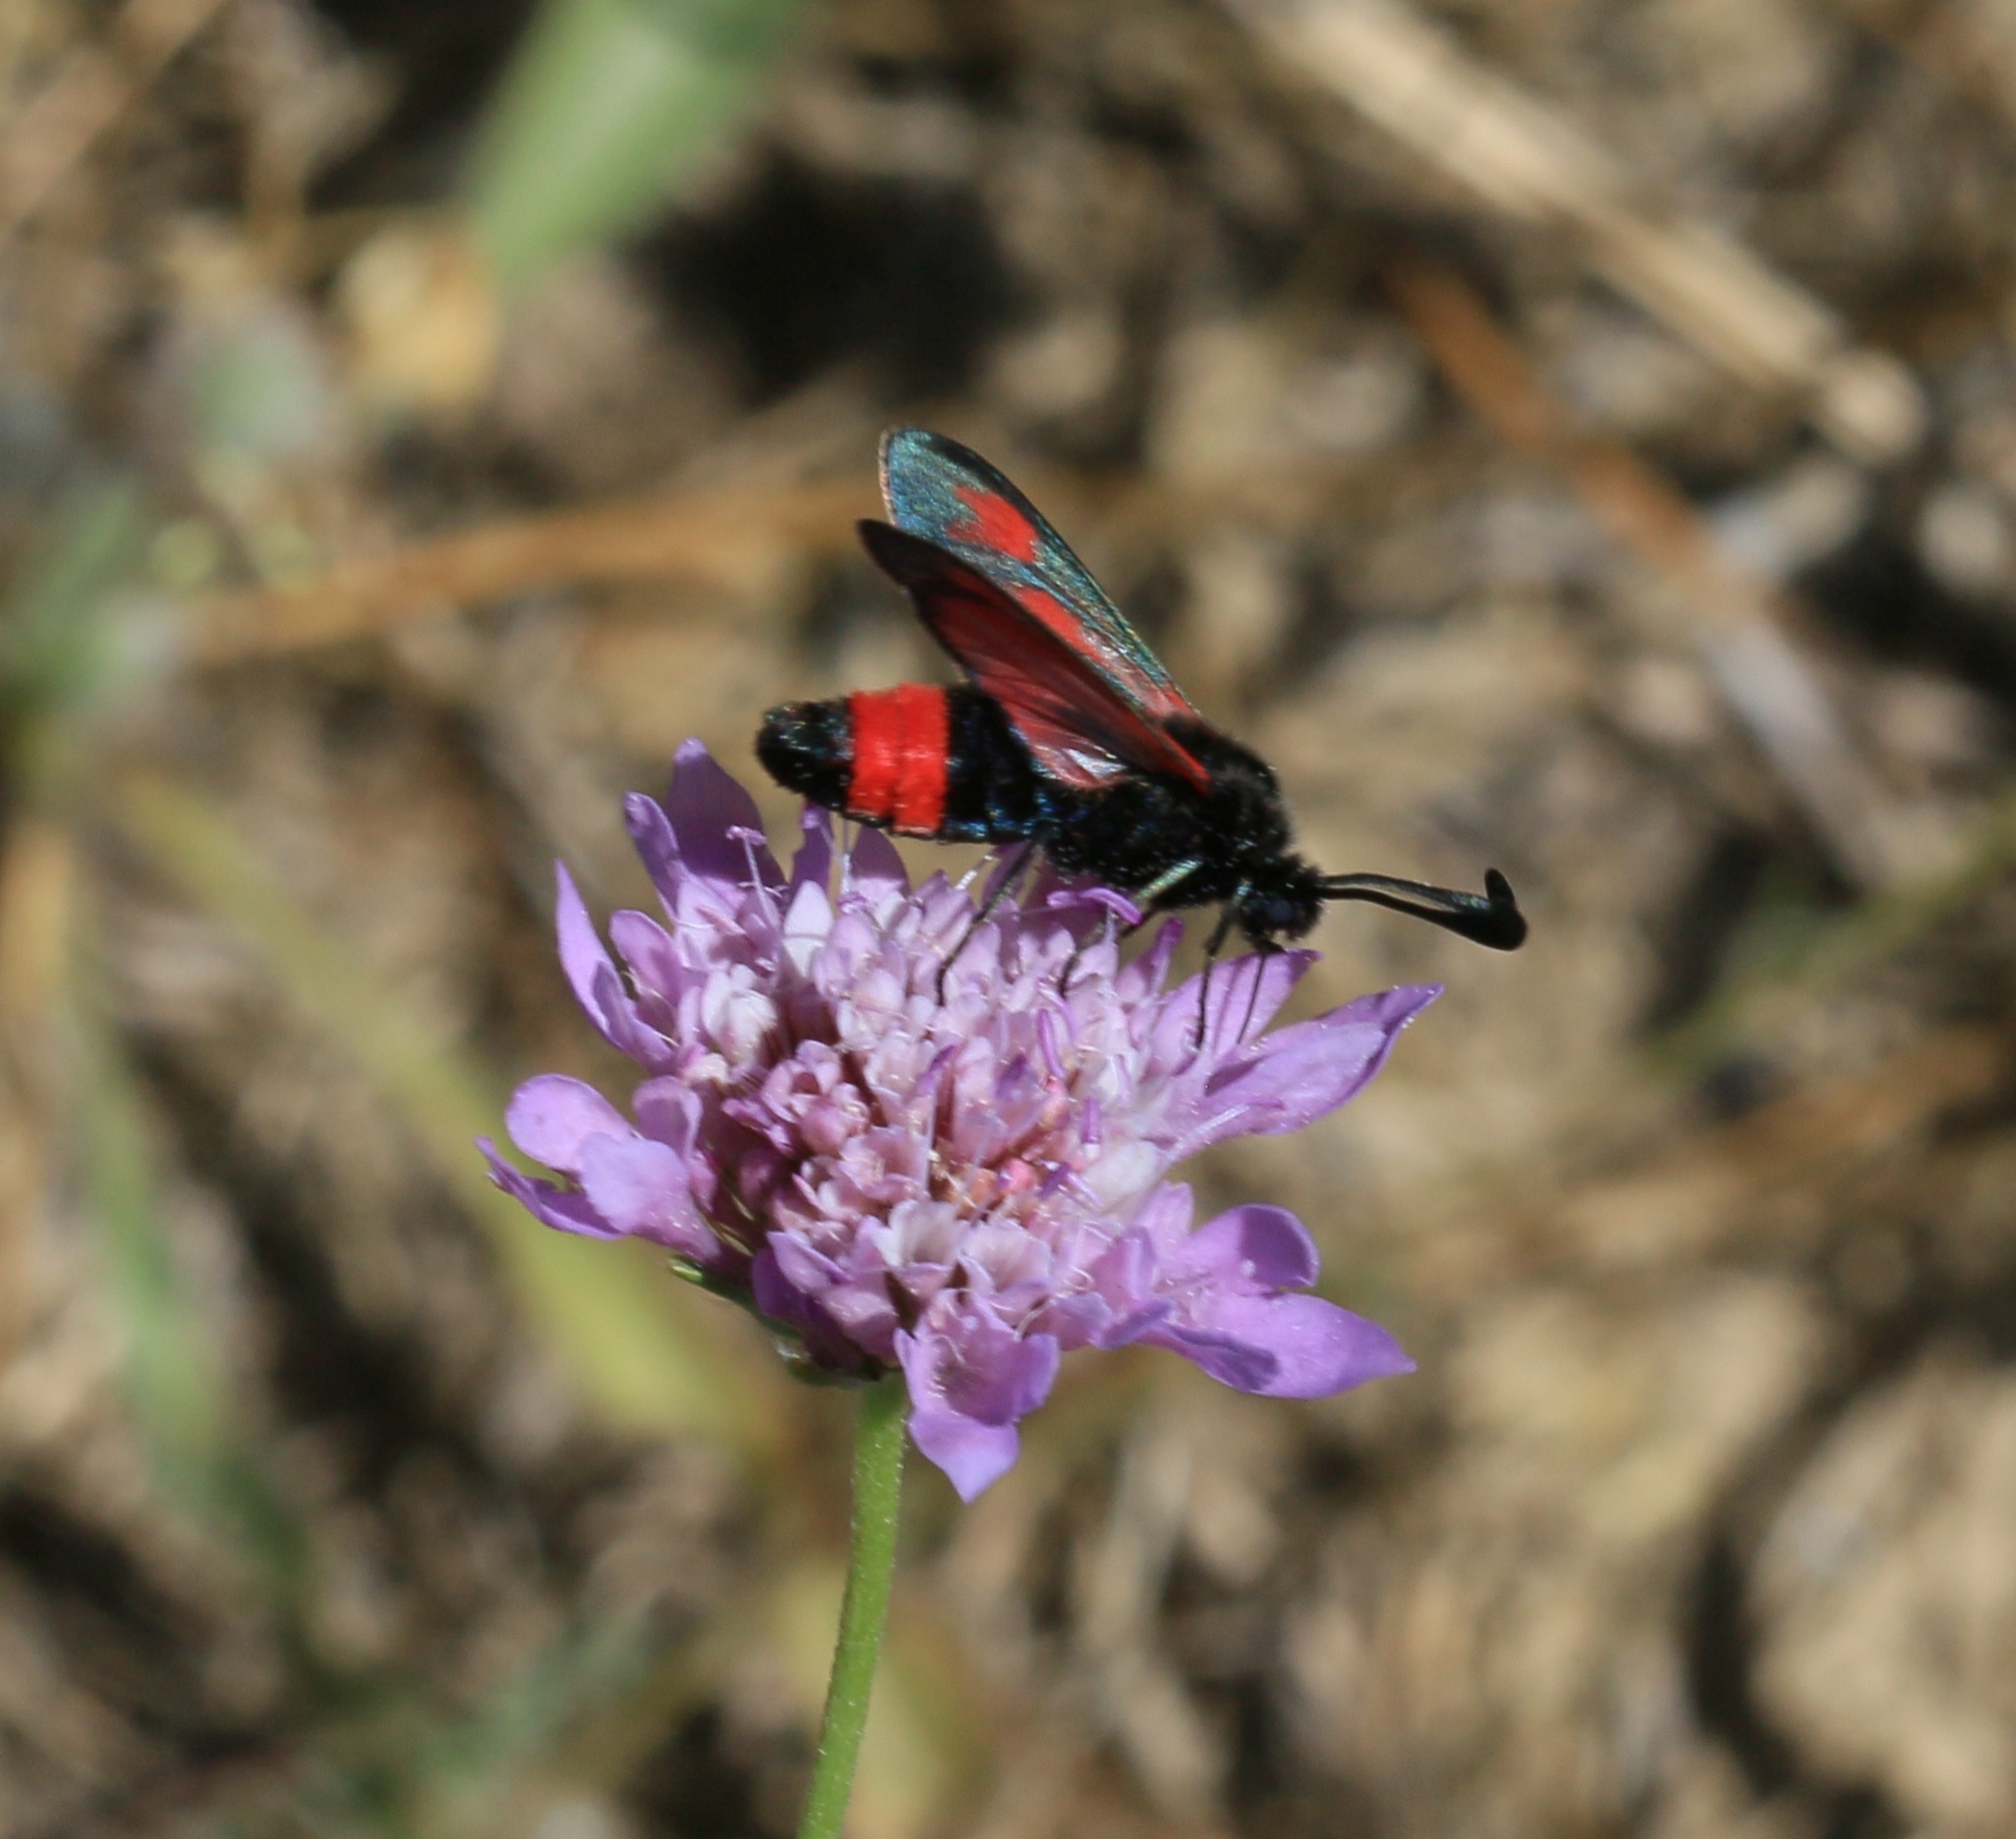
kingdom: Animalia
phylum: Arthropoda
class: Insecta
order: Lepidoptera
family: Zygaenidae
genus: Zygaena
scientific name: Zygaena sarpedon
